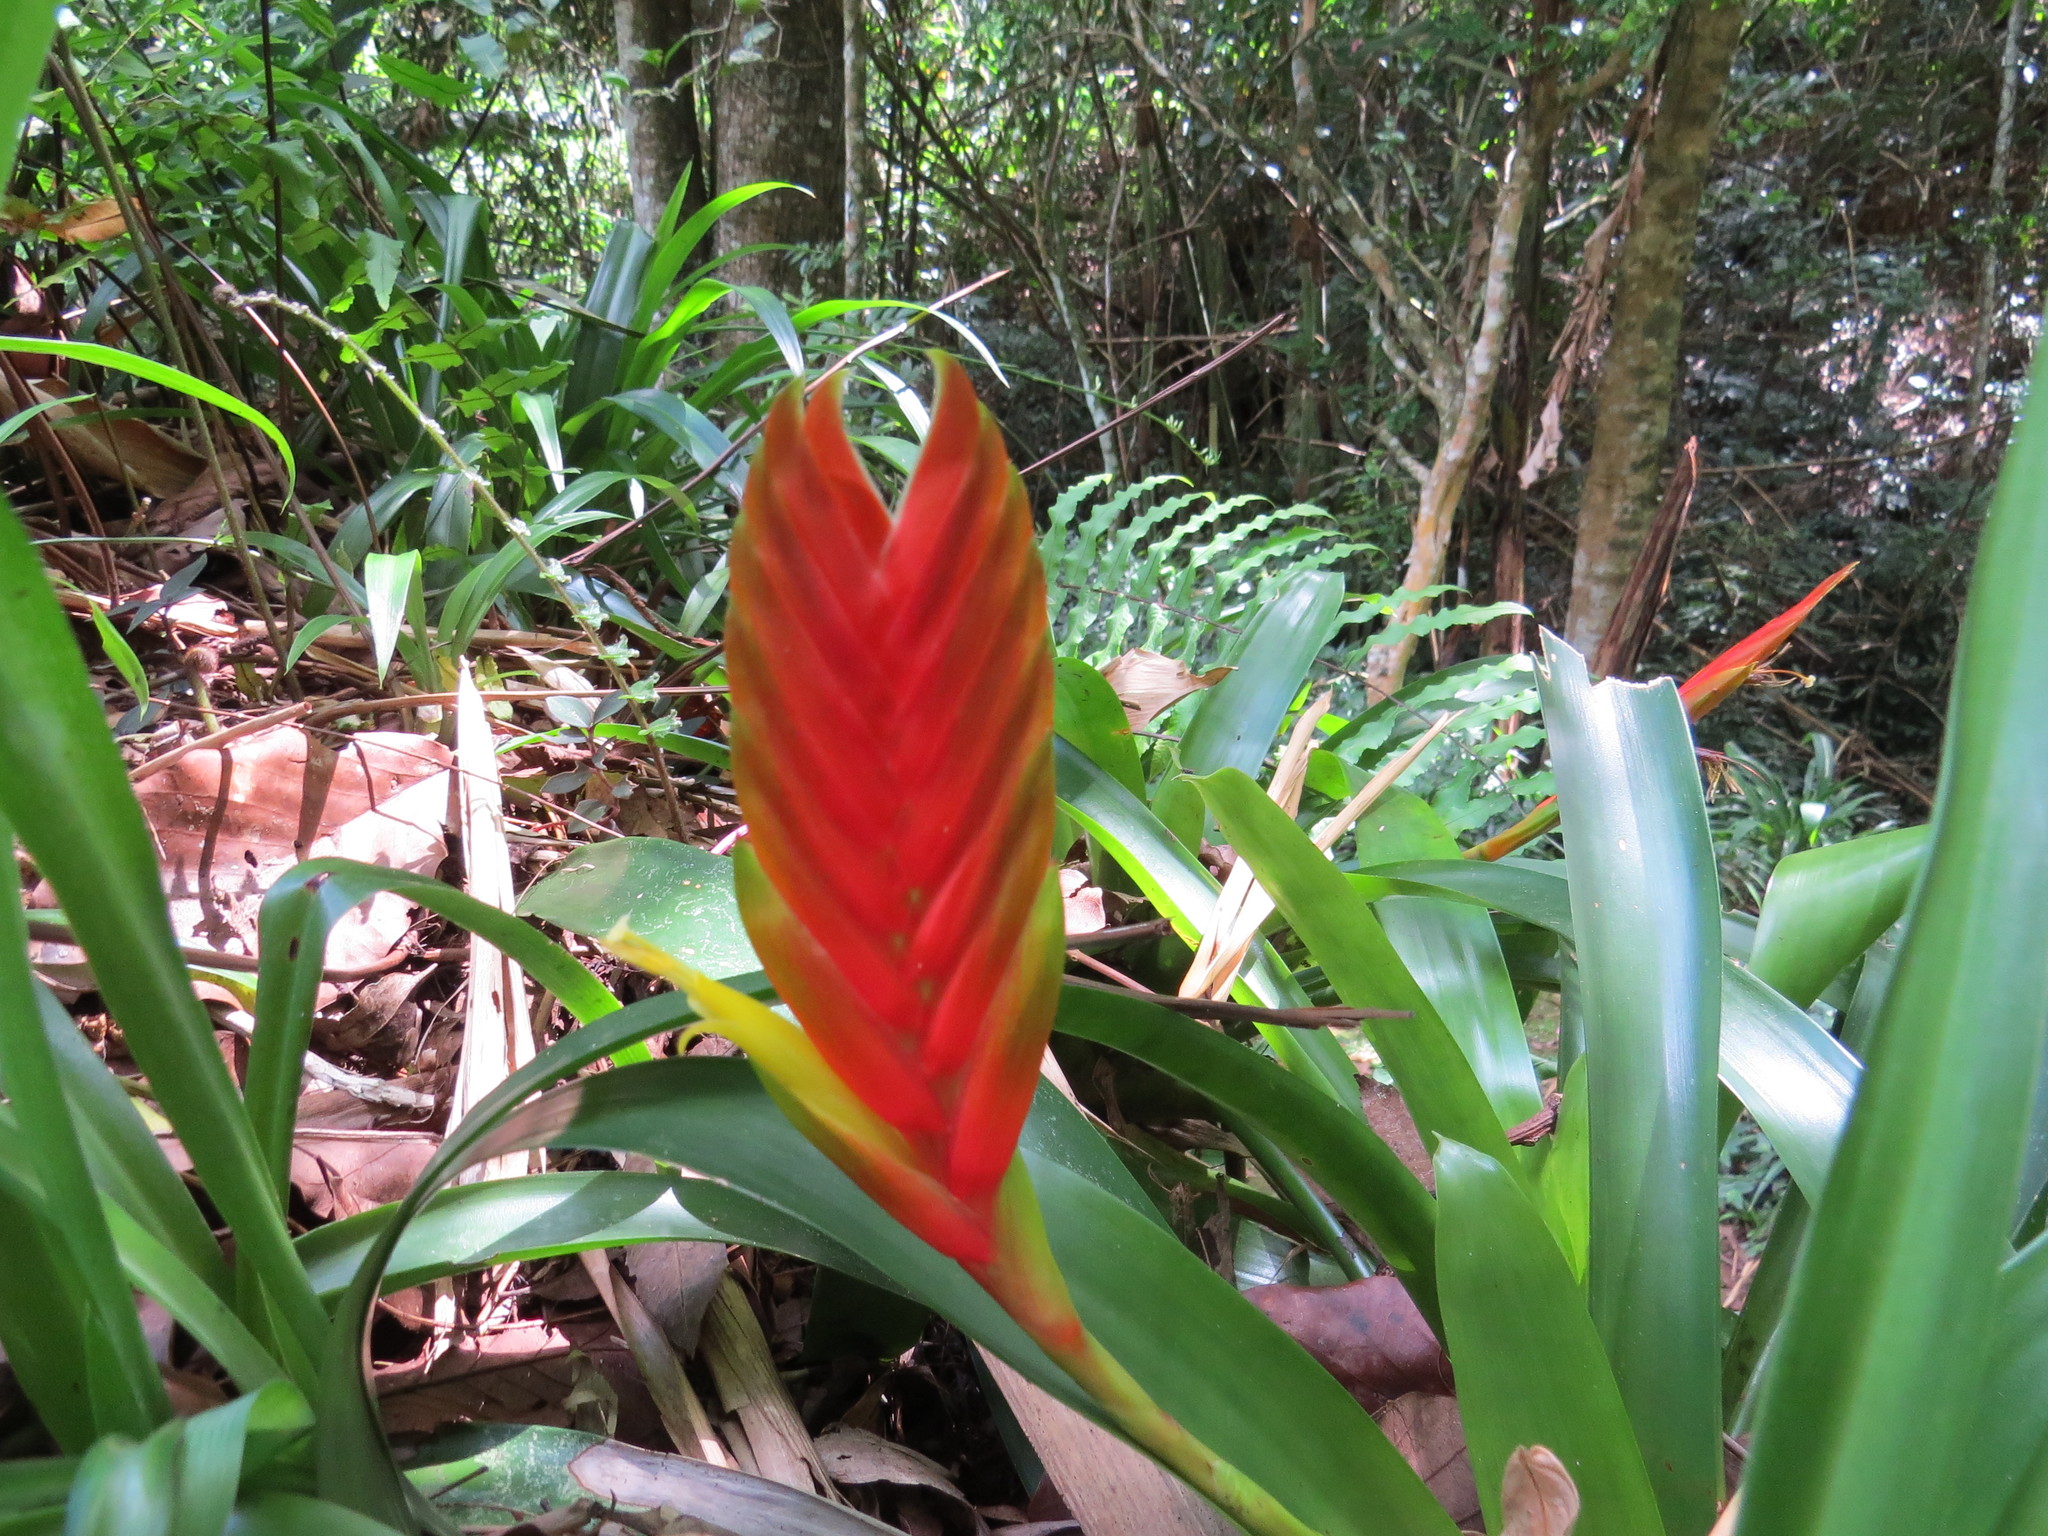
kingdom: Plantae
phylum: Tracheophyta
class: Liliopsida
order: Poales
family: Bromeliaceae
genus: Vriesea
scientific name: Vriesea paraibica
